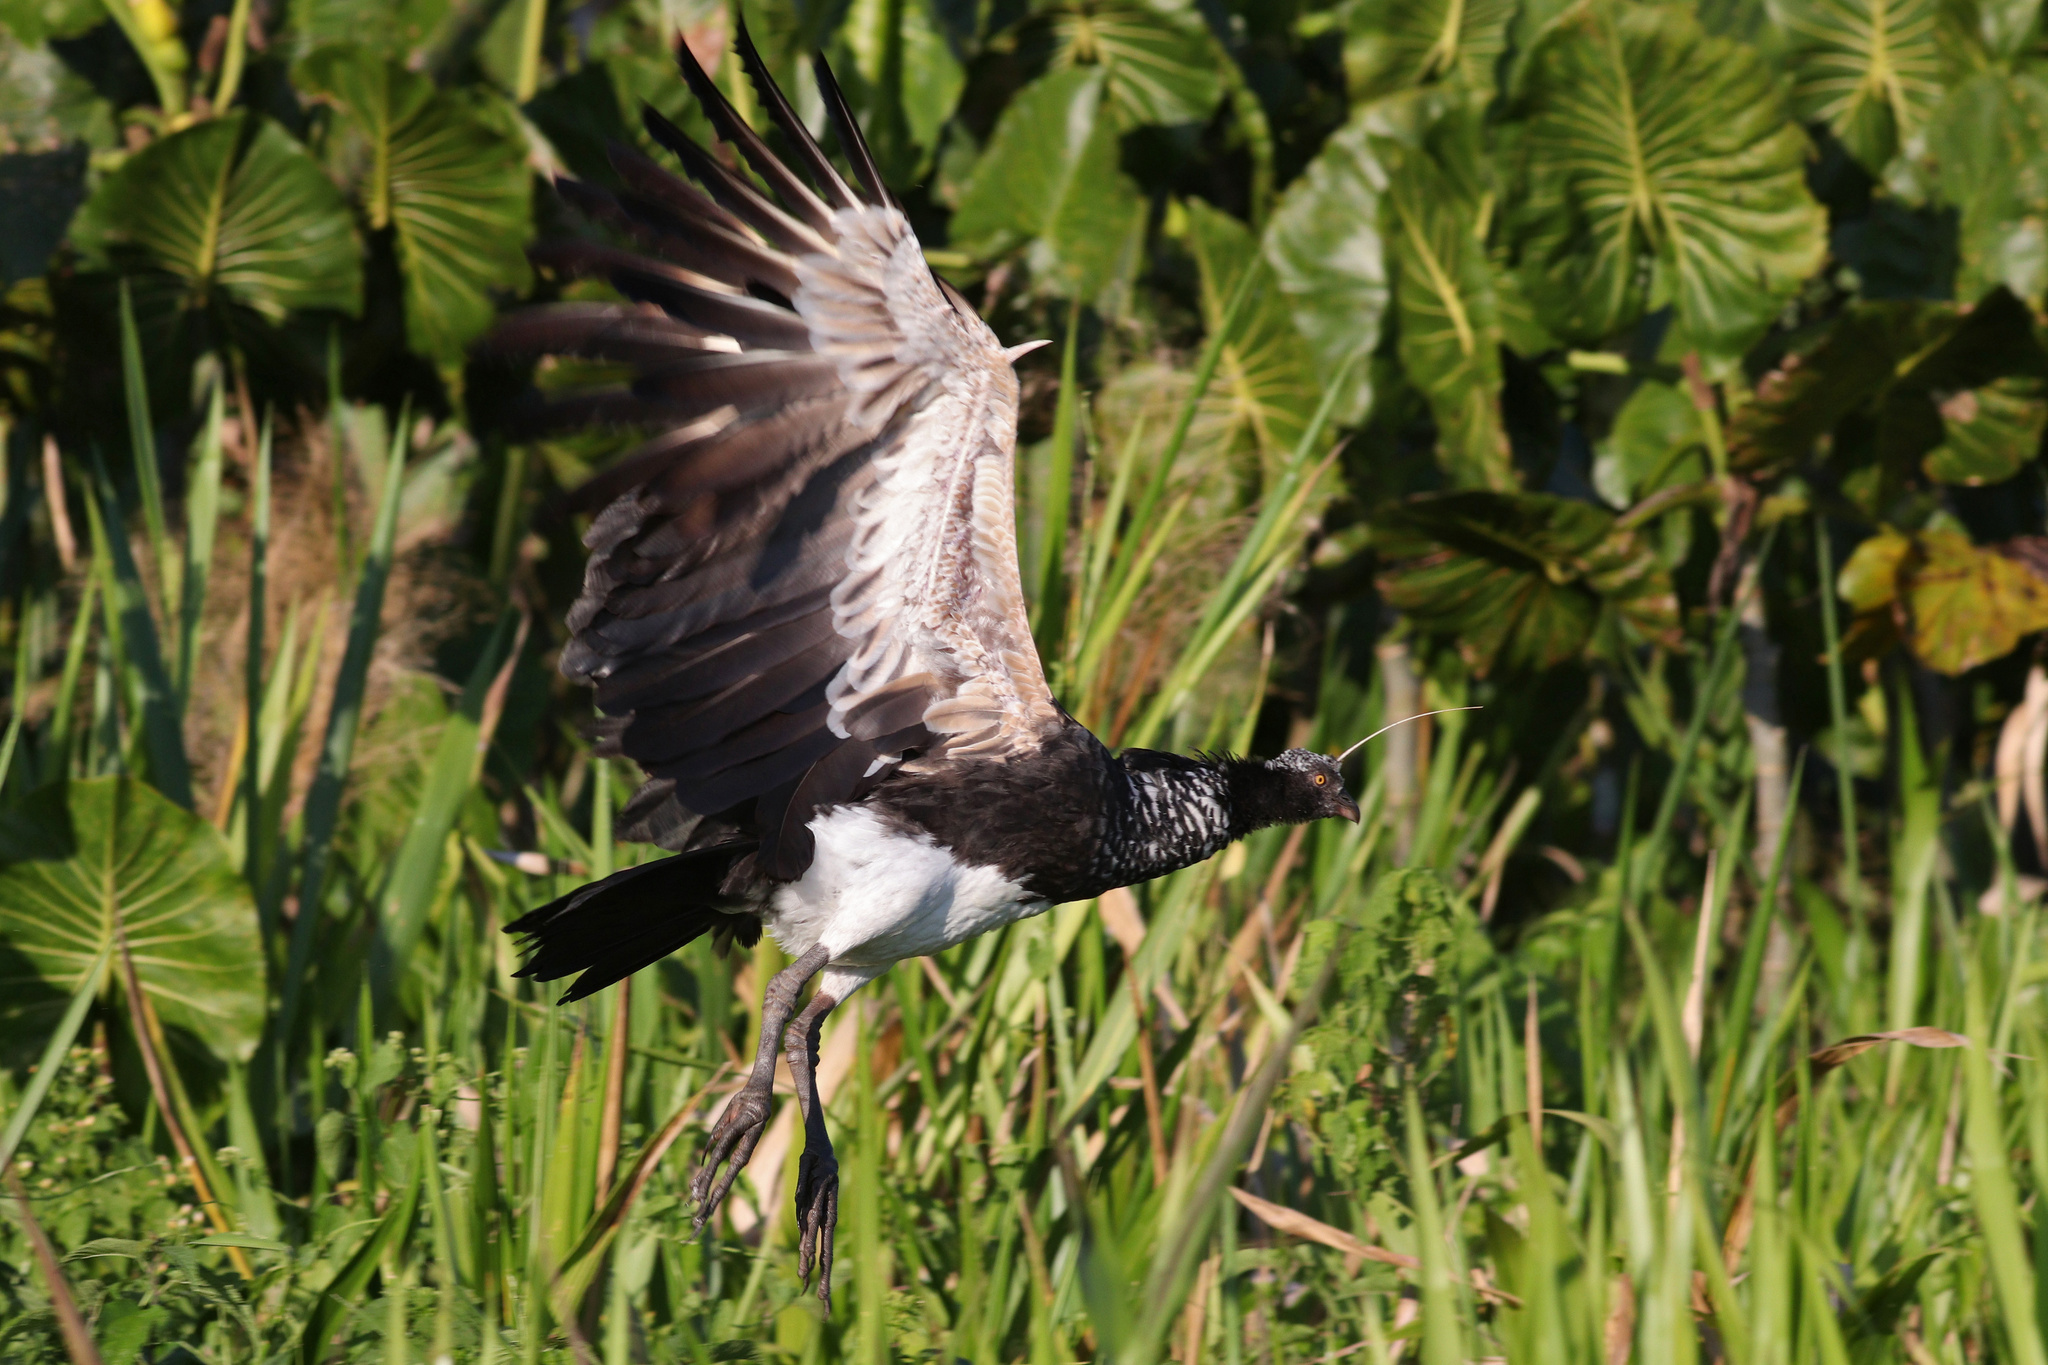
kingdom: Animalia
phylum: Chordata
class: Aves
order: Anseriformes
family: Anhimidae
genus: Anhima
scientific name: Anhima cornuta
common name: Horned screamer
